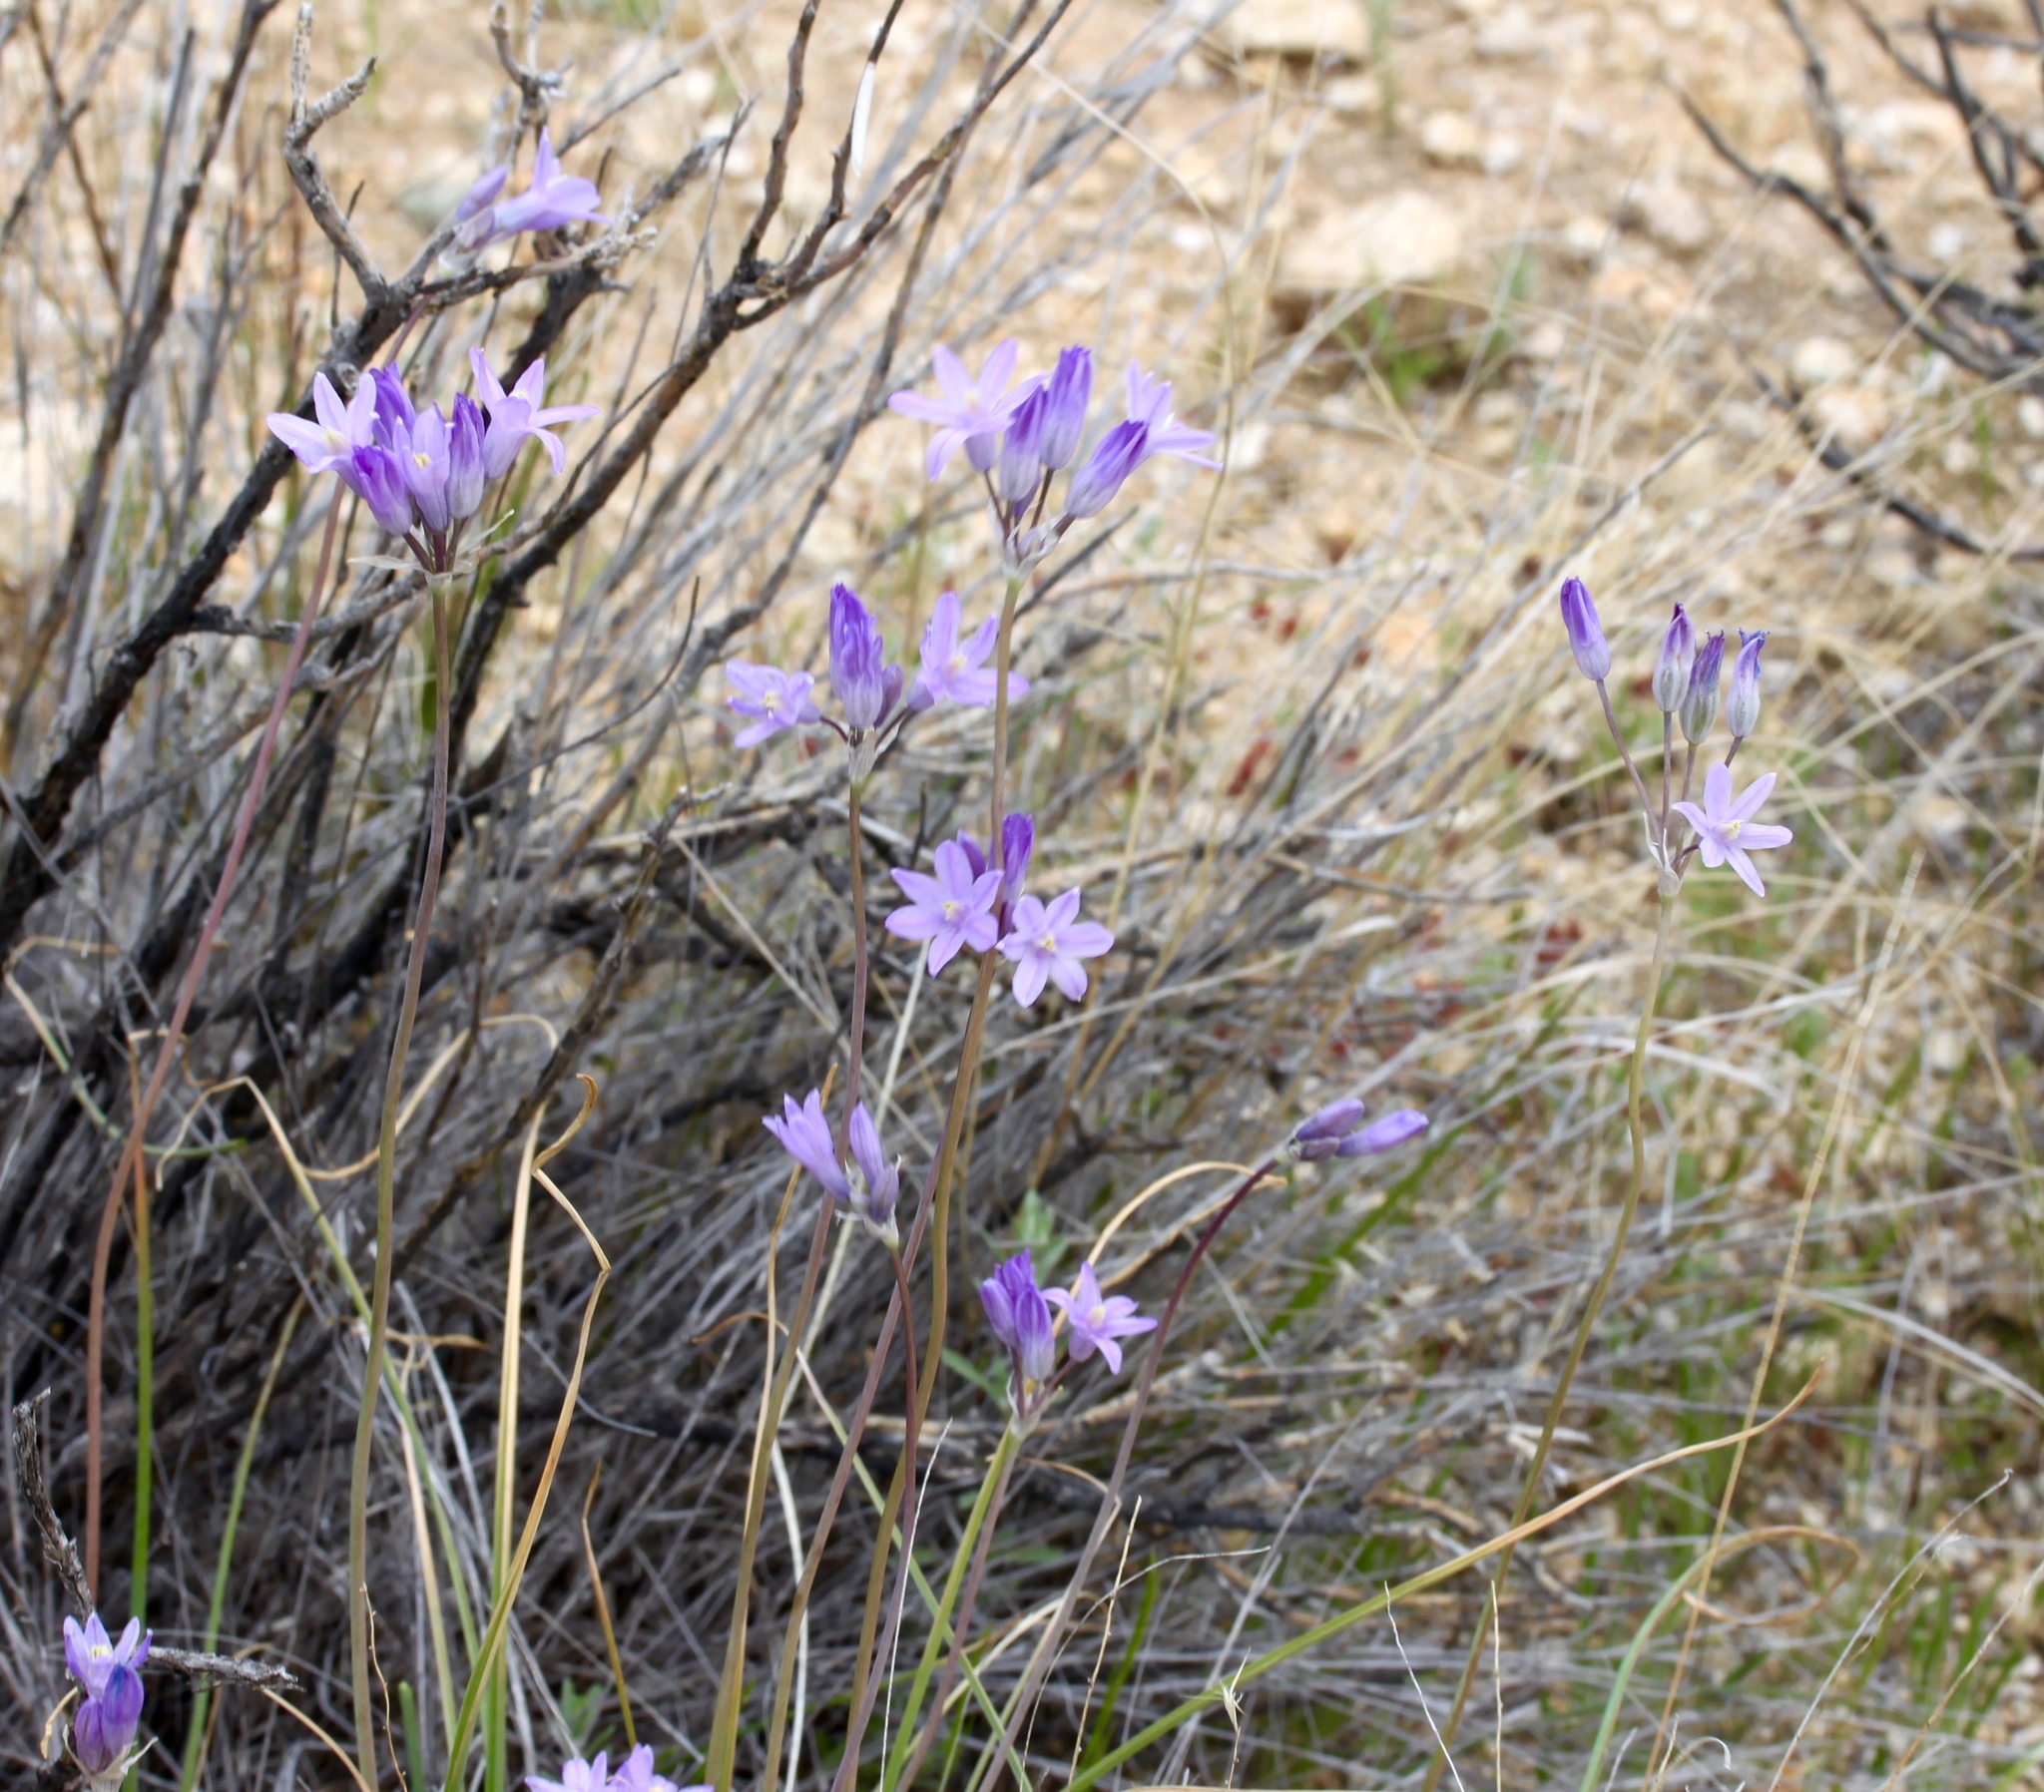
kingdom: Plantae
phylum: Tracheophyta
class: Liliopsida
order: Asparagales
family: Asparagaceae
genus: Dipterostemon
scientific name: Dipterostemon capitatus
